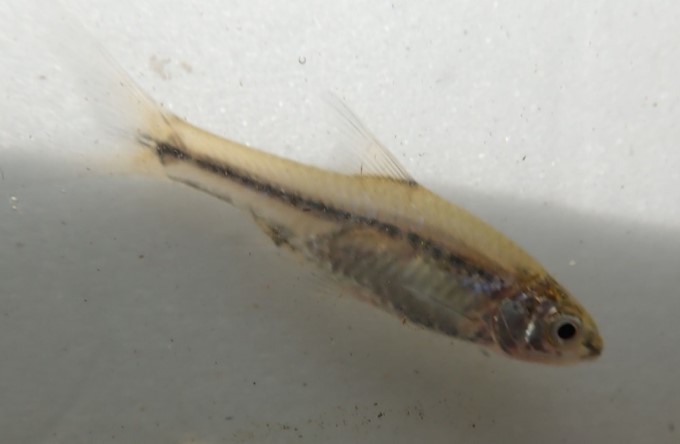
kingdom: Animalia
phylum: Chordata
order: Cypriniformes
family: Cyprinidae
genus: Enteromius
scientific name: Enteromius toppini
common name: East coast barb
